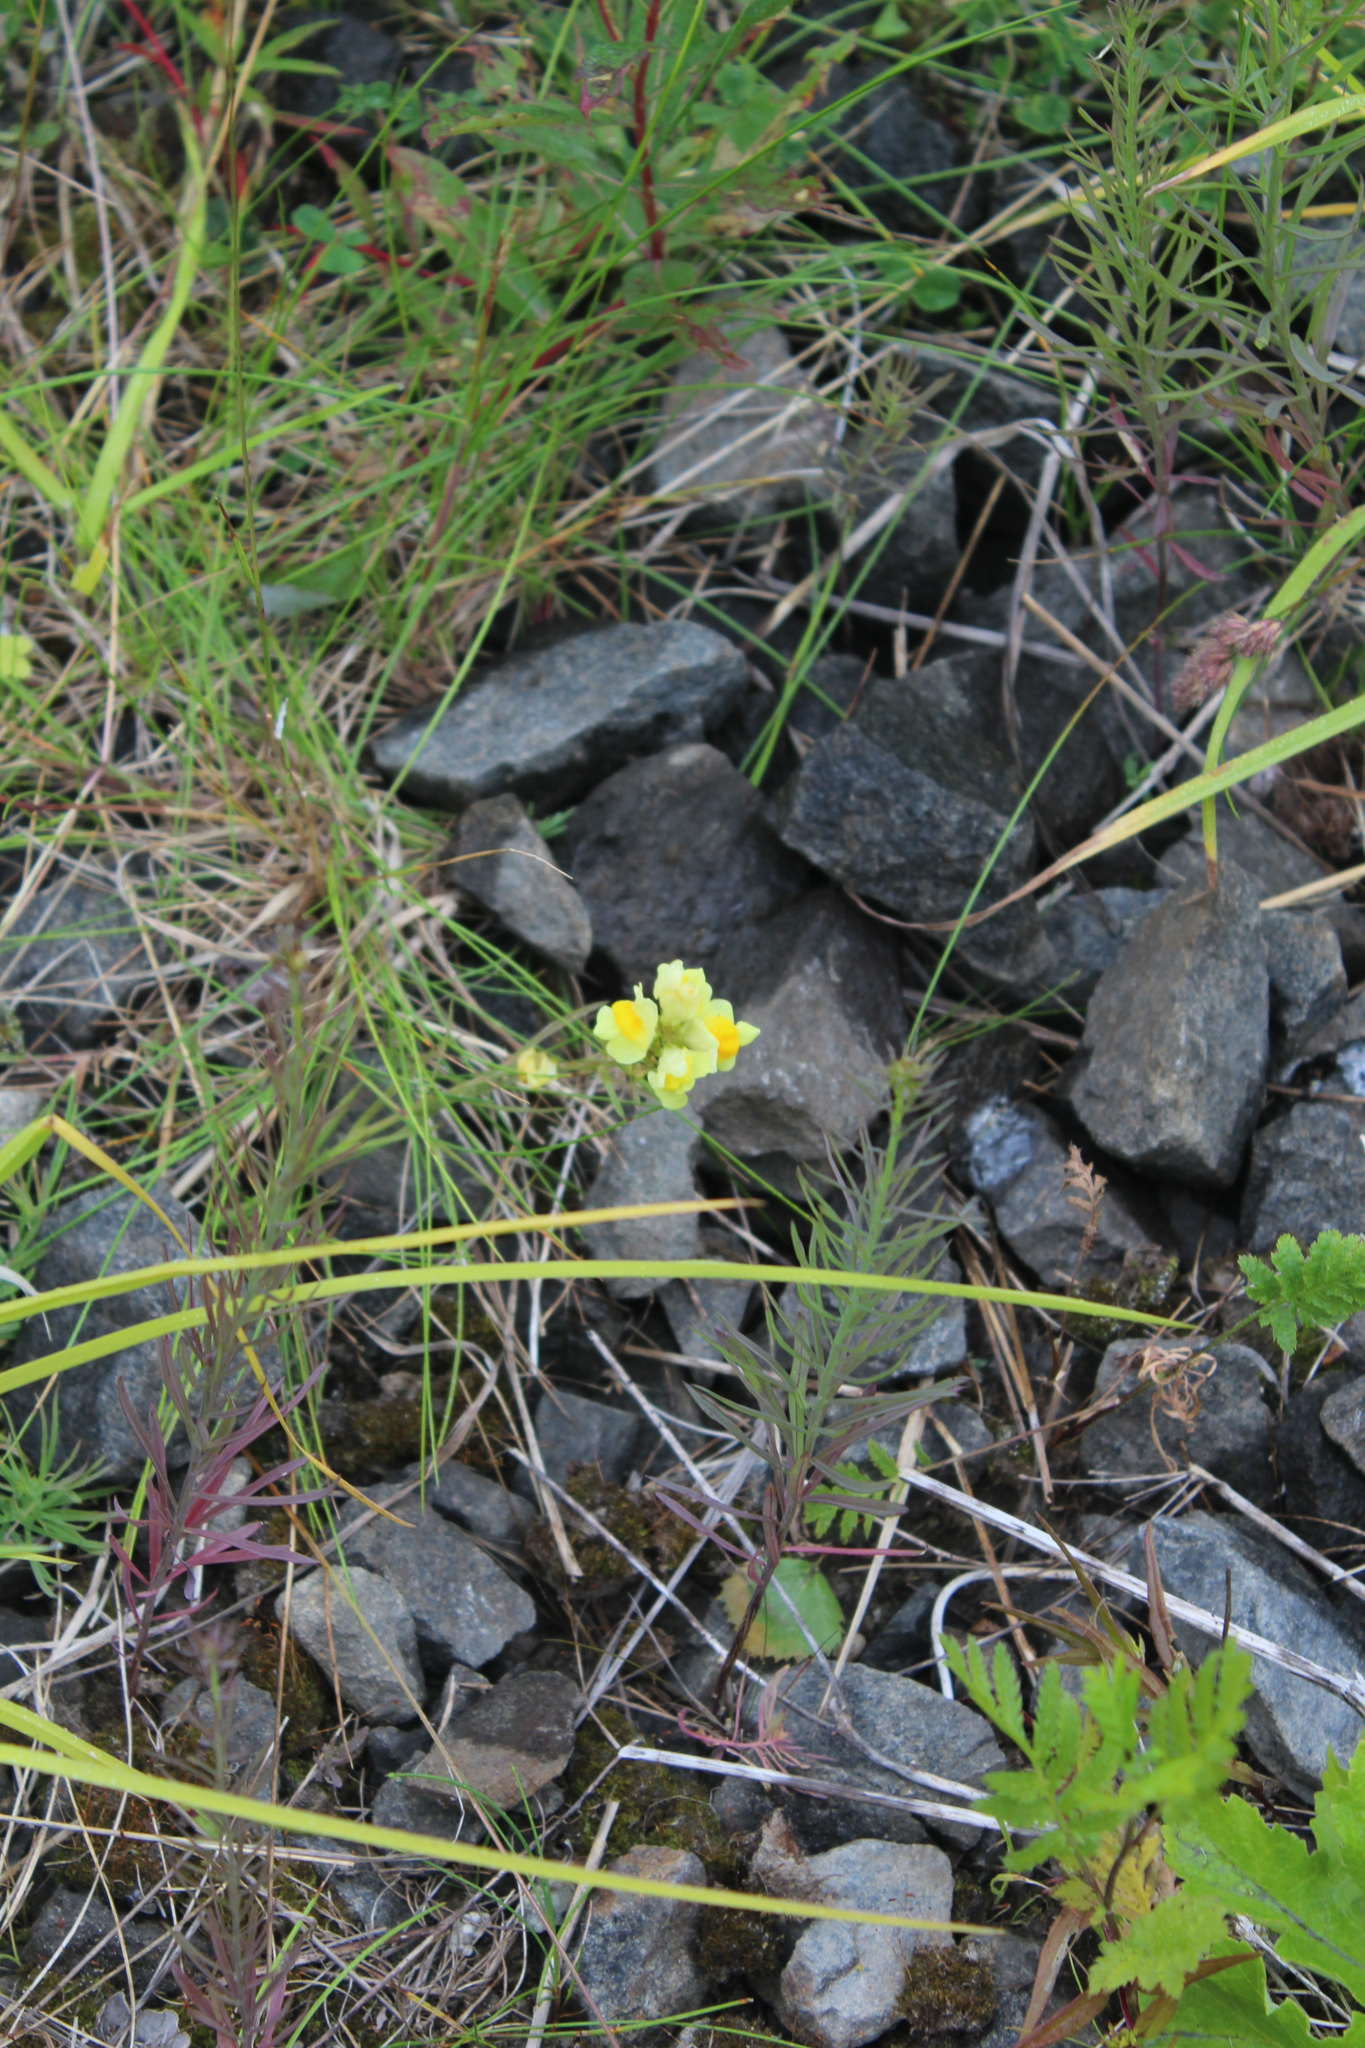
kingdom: Plantae
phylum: Tracheophyta
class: Magnoliopsida
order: Lamiales
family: Plantaginaceae
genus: Linaria
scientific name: Linaria vulgaris
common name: Butter and eggs
